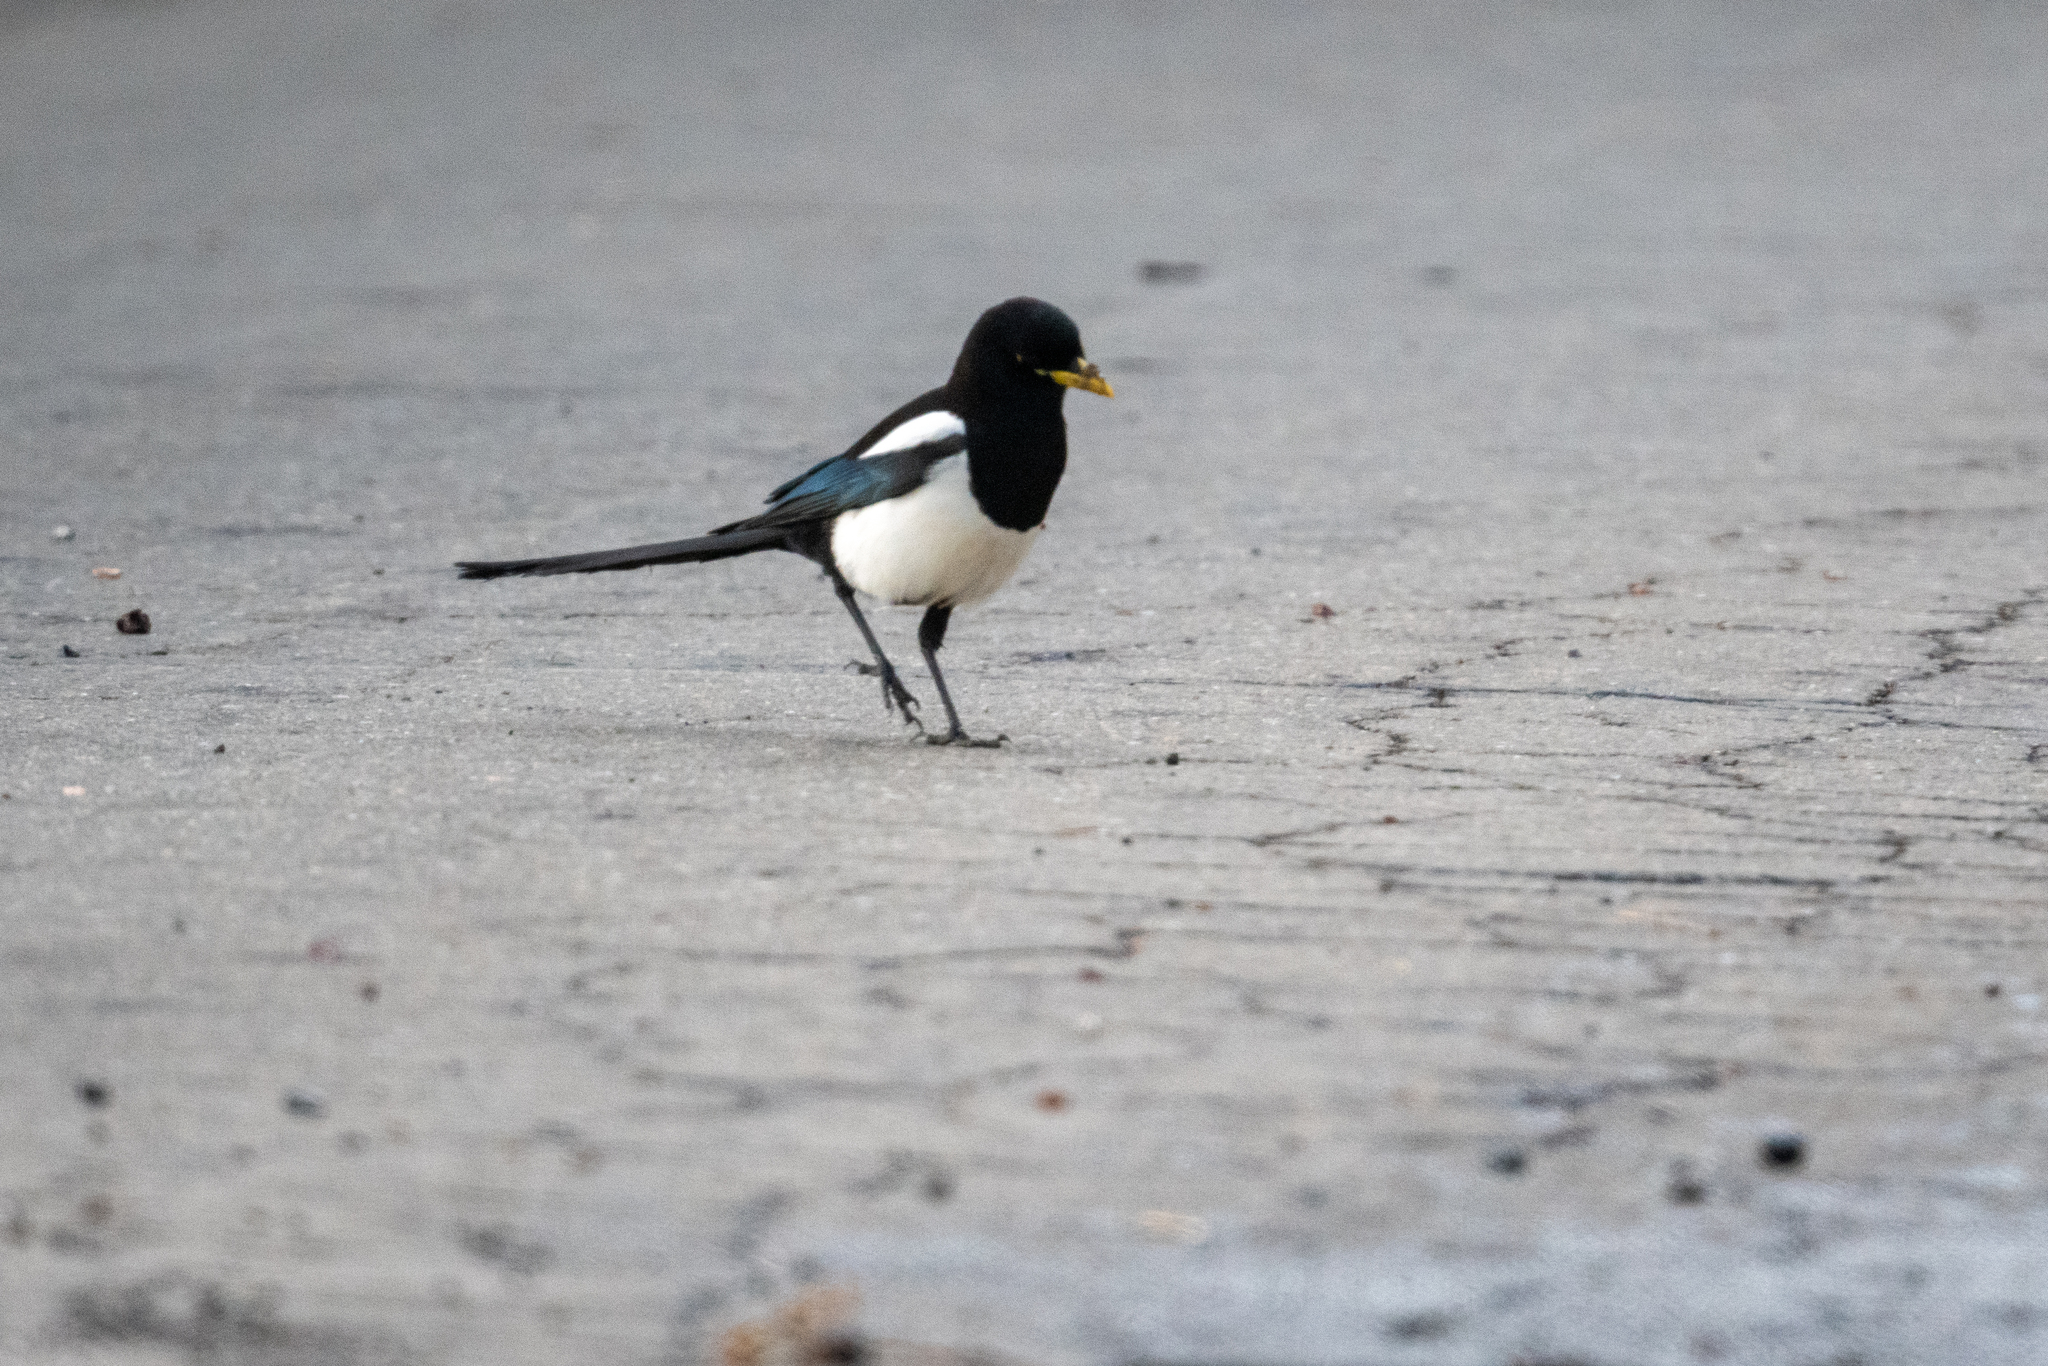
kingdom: Animalia
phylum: Chordata
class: Aves
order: Passeriformes
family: Corvidae
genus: Pica
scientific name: Pica nuttalli
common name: Yellow-billed magpie
